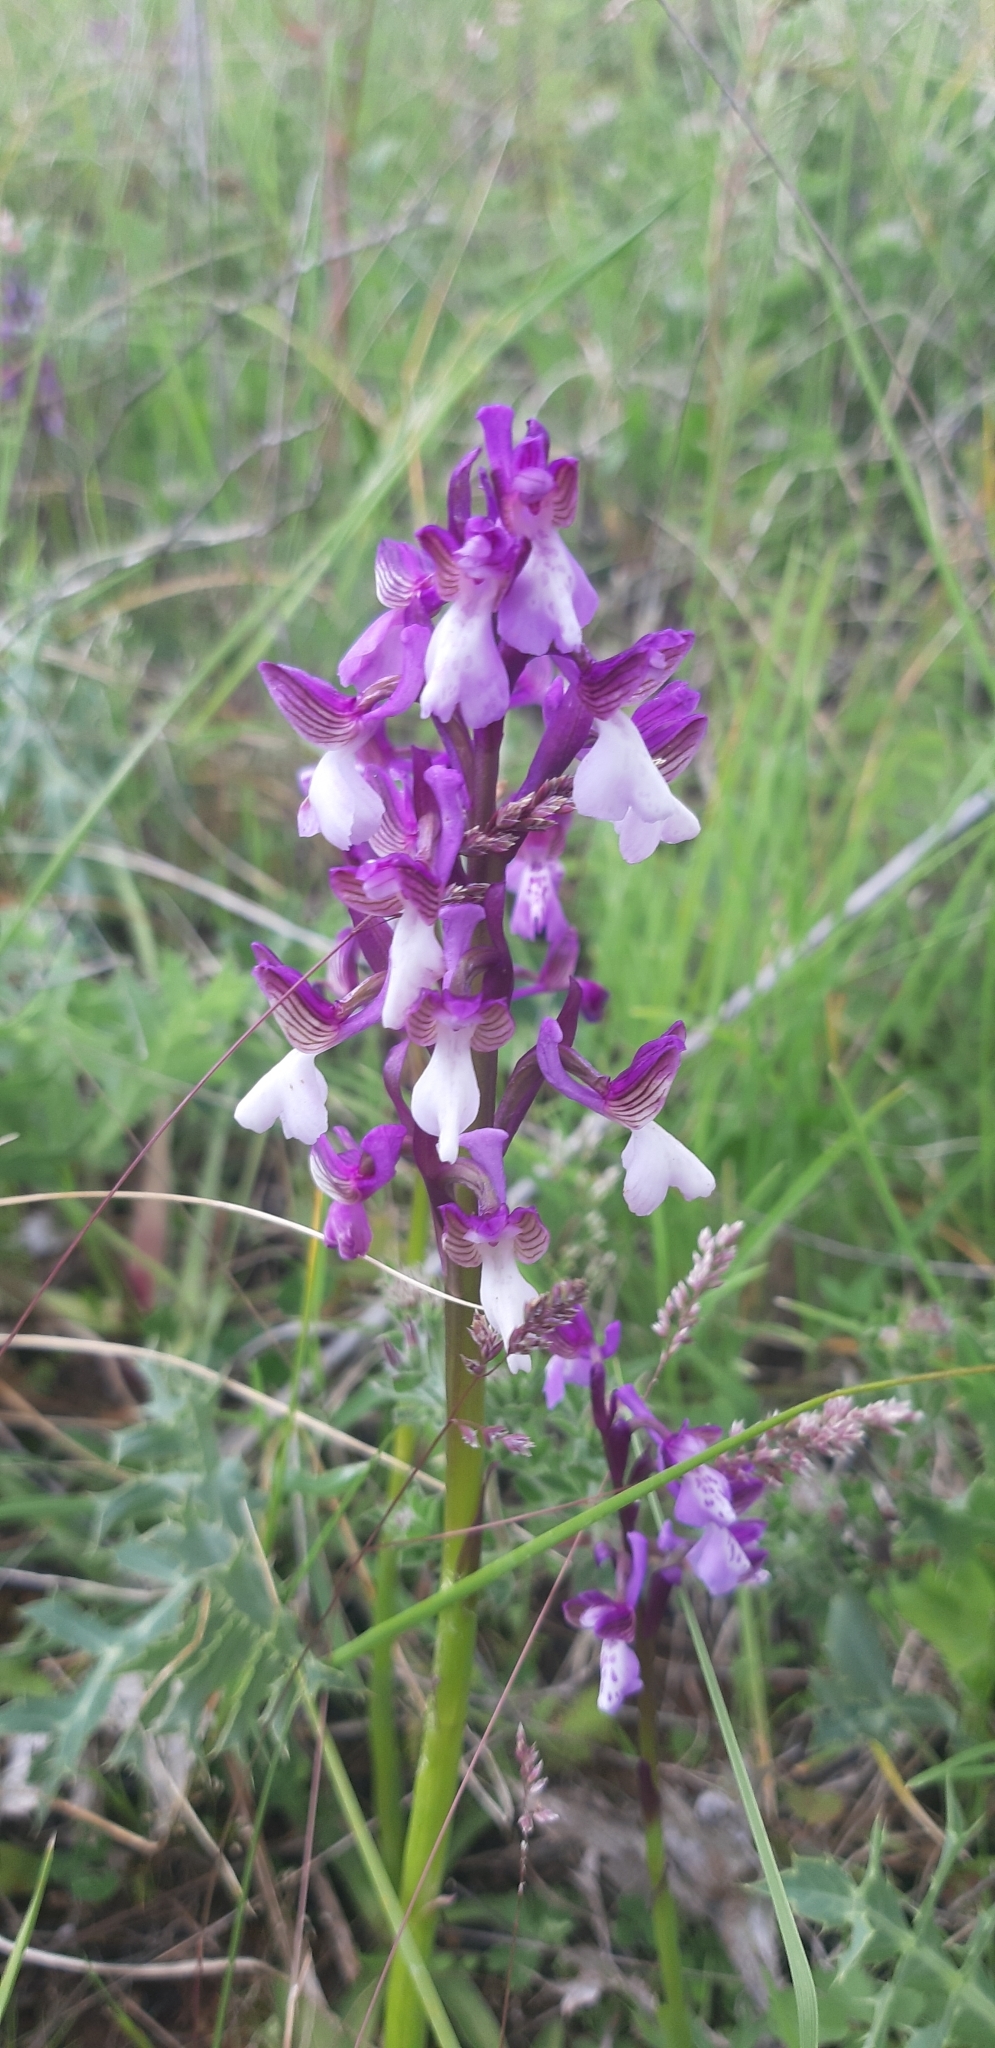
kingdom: Plantae
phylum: Tracheophyta
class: Liliopsida
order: Asparagales
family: Orchidaceae
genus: Anacamptis
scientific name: Anacamptis morio
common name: Green-winged orchid
